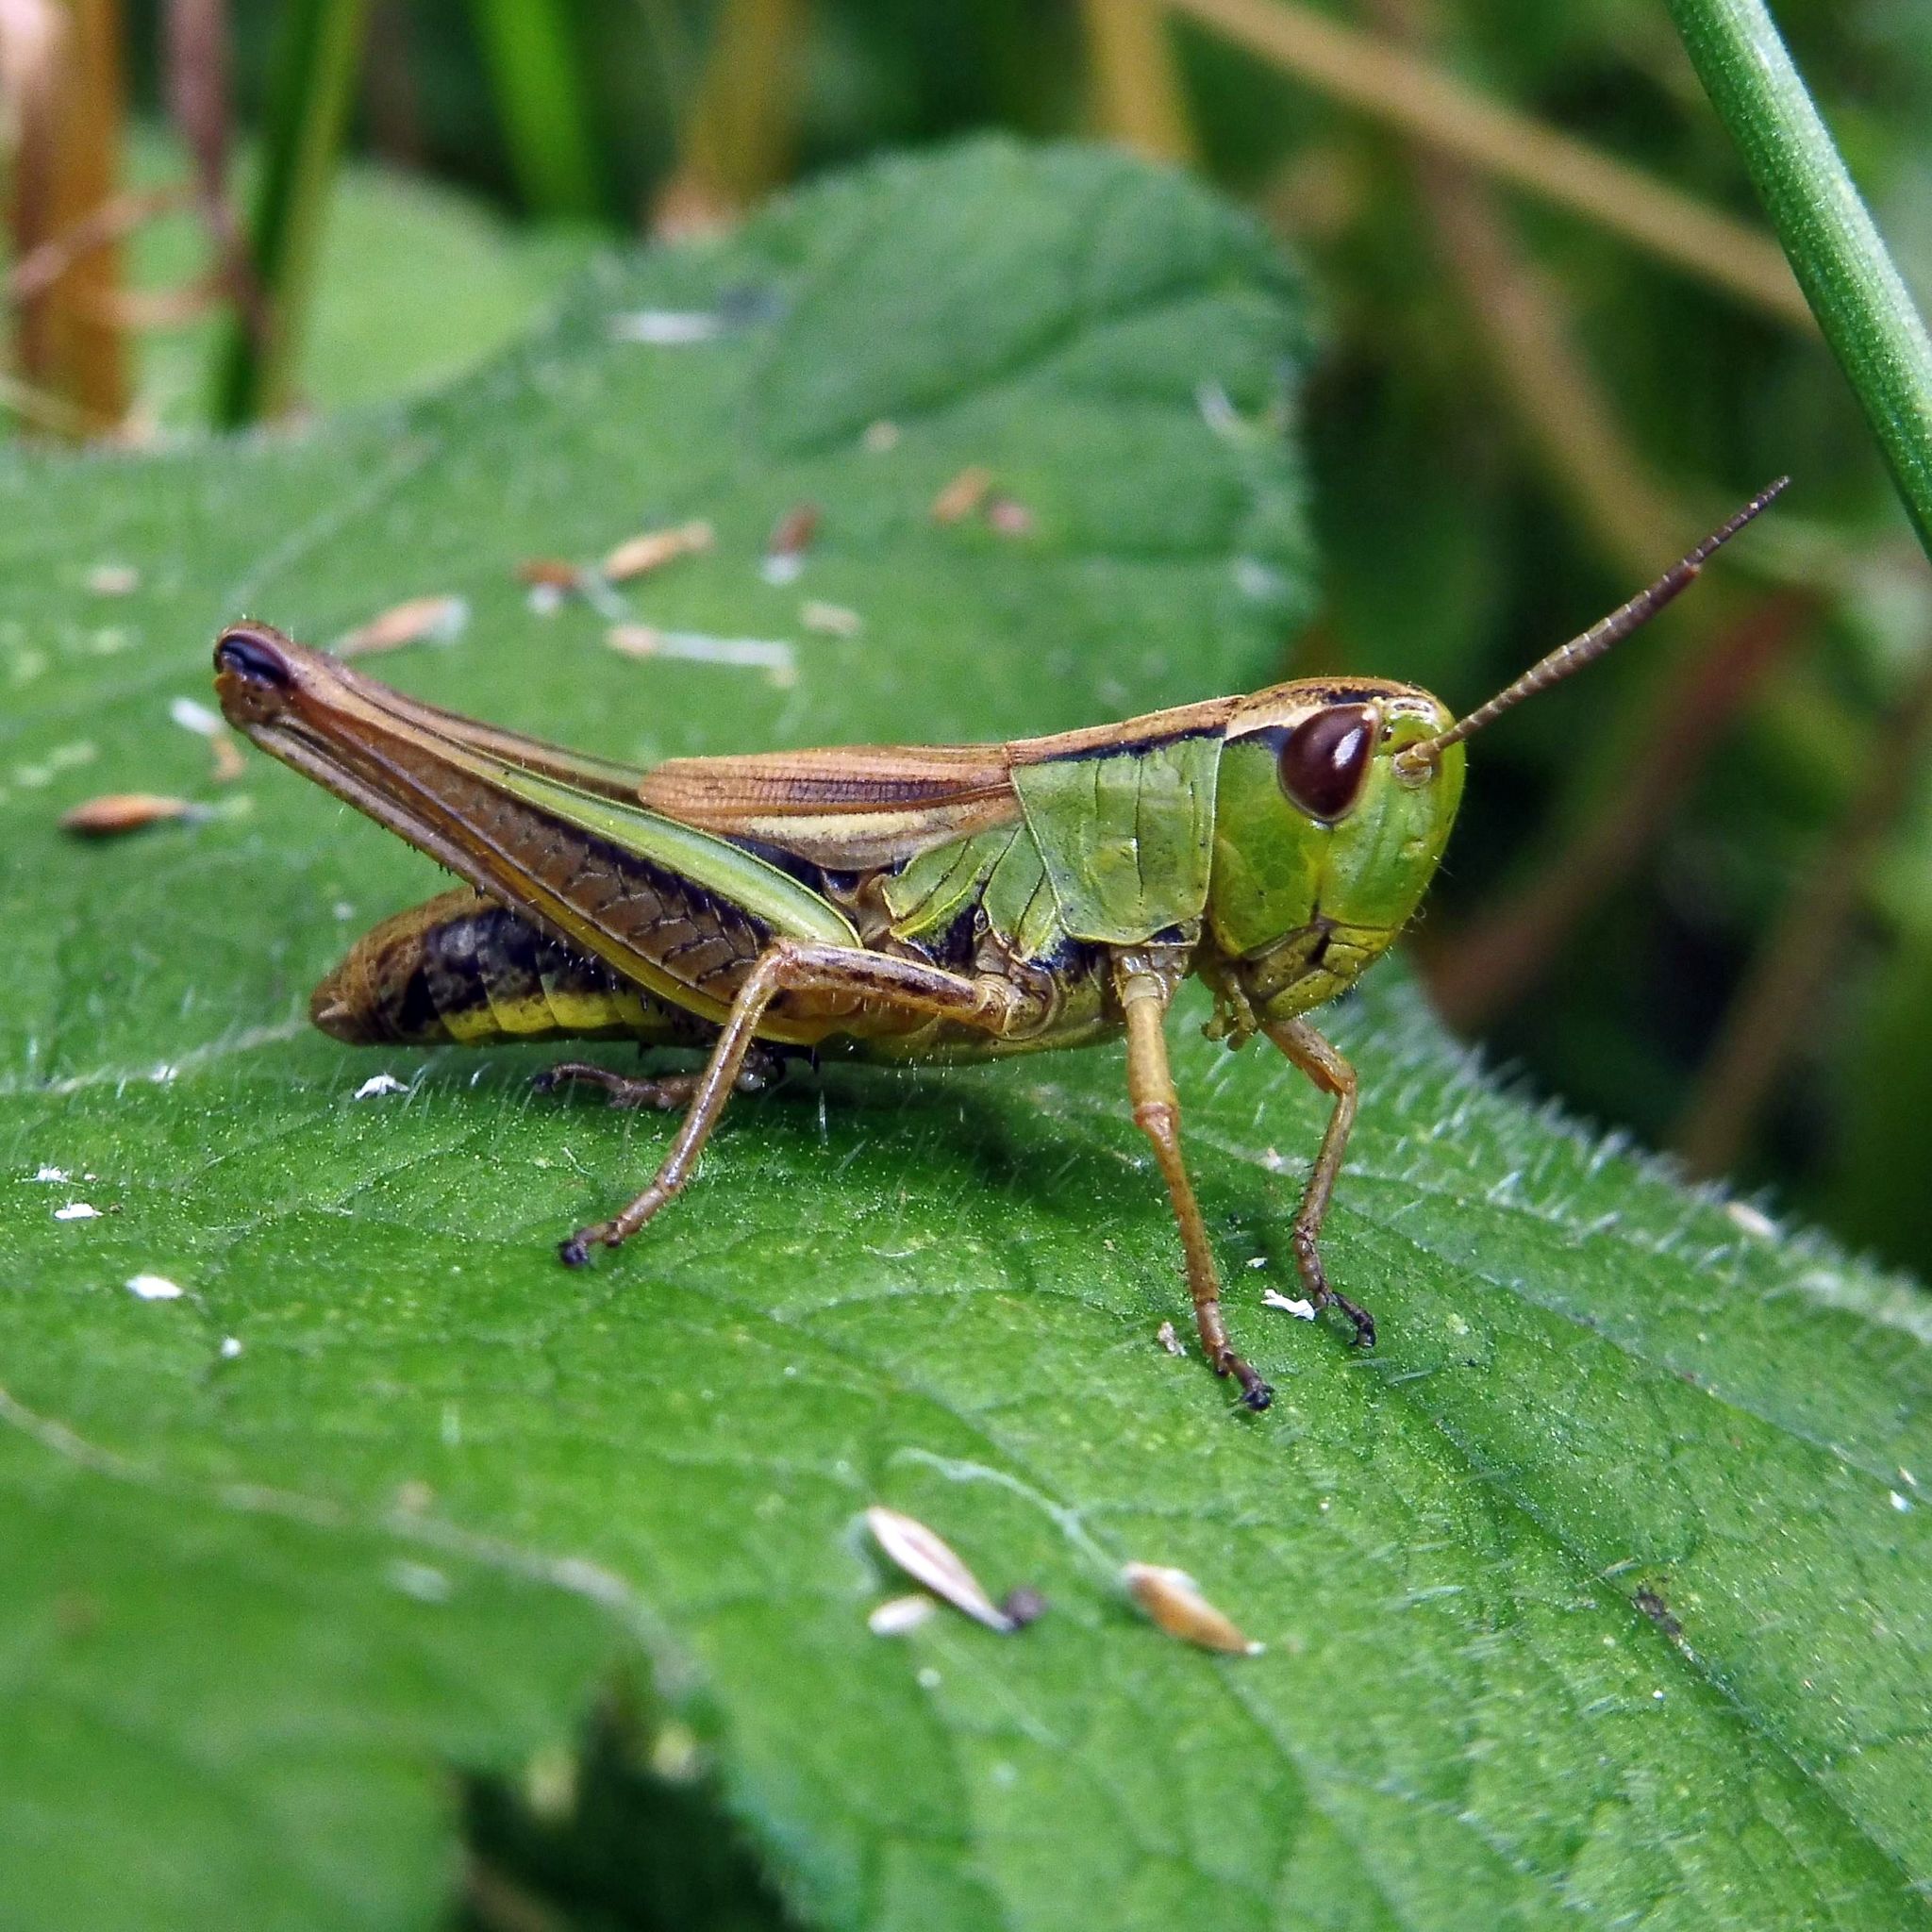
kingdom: Animalia
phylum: Arthropoda
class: Insecta
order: Orthoptera
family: Acrididae
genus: Pseudochorthippus
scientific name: Pseudochorthippus parallelus
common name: Meadow grasshopper
